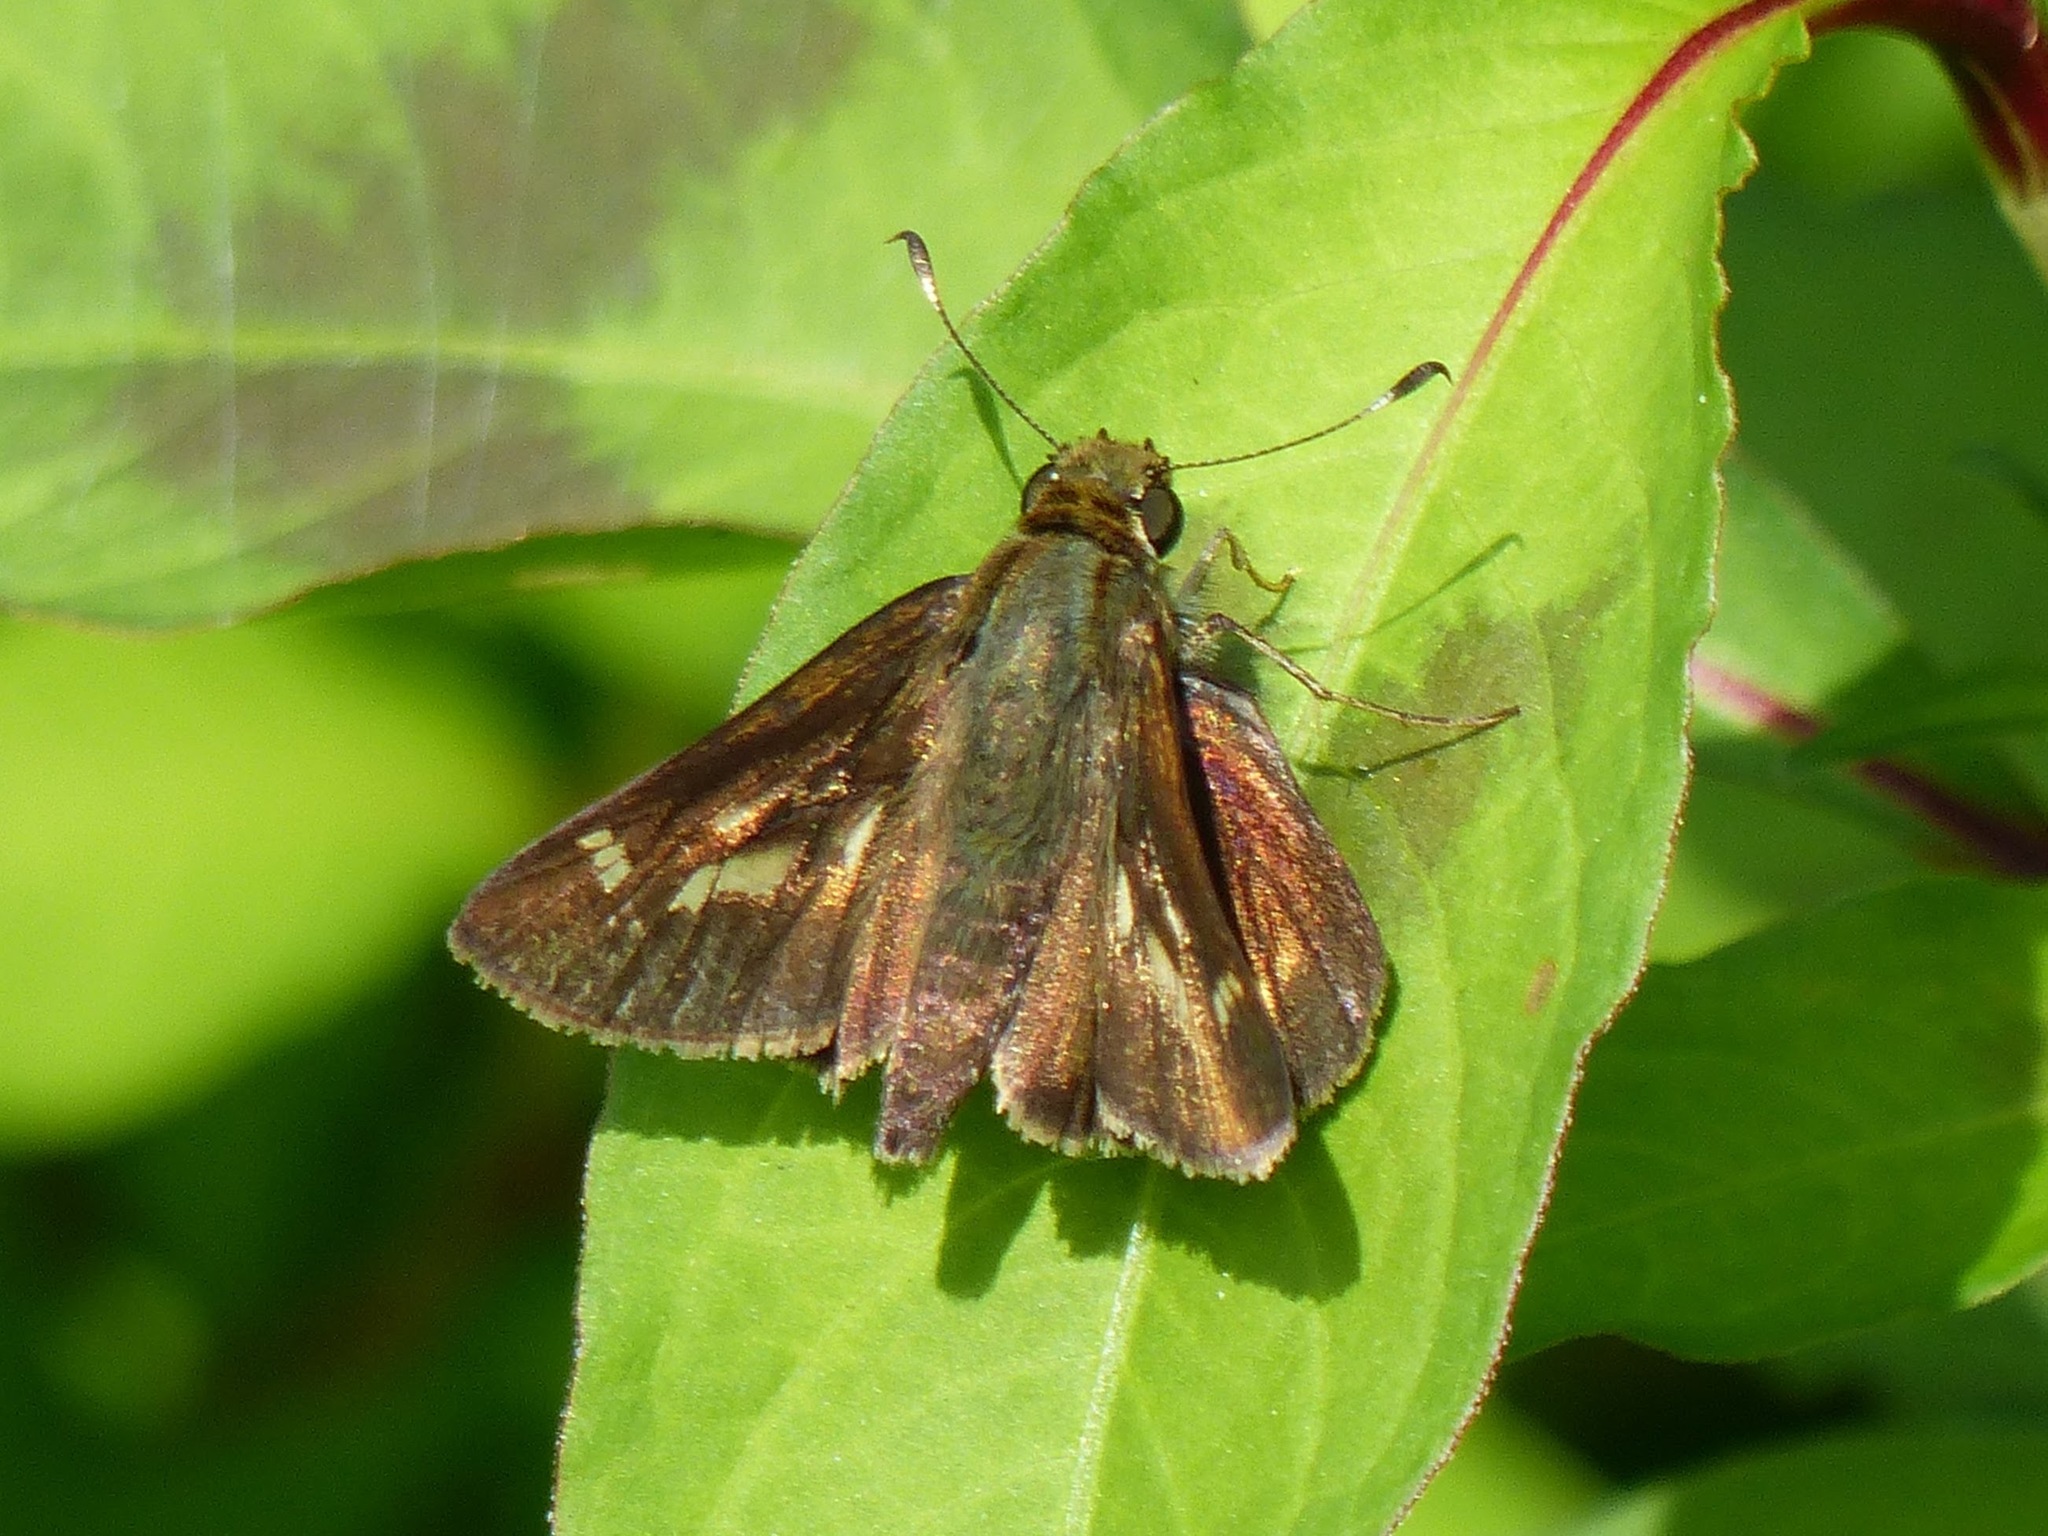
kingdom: Animalia
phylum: Arthropoda
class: Insecta
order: Lepidoptera
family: Hesperiidae
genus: Vernia
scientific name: Vernia verna
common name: Little glassywing
